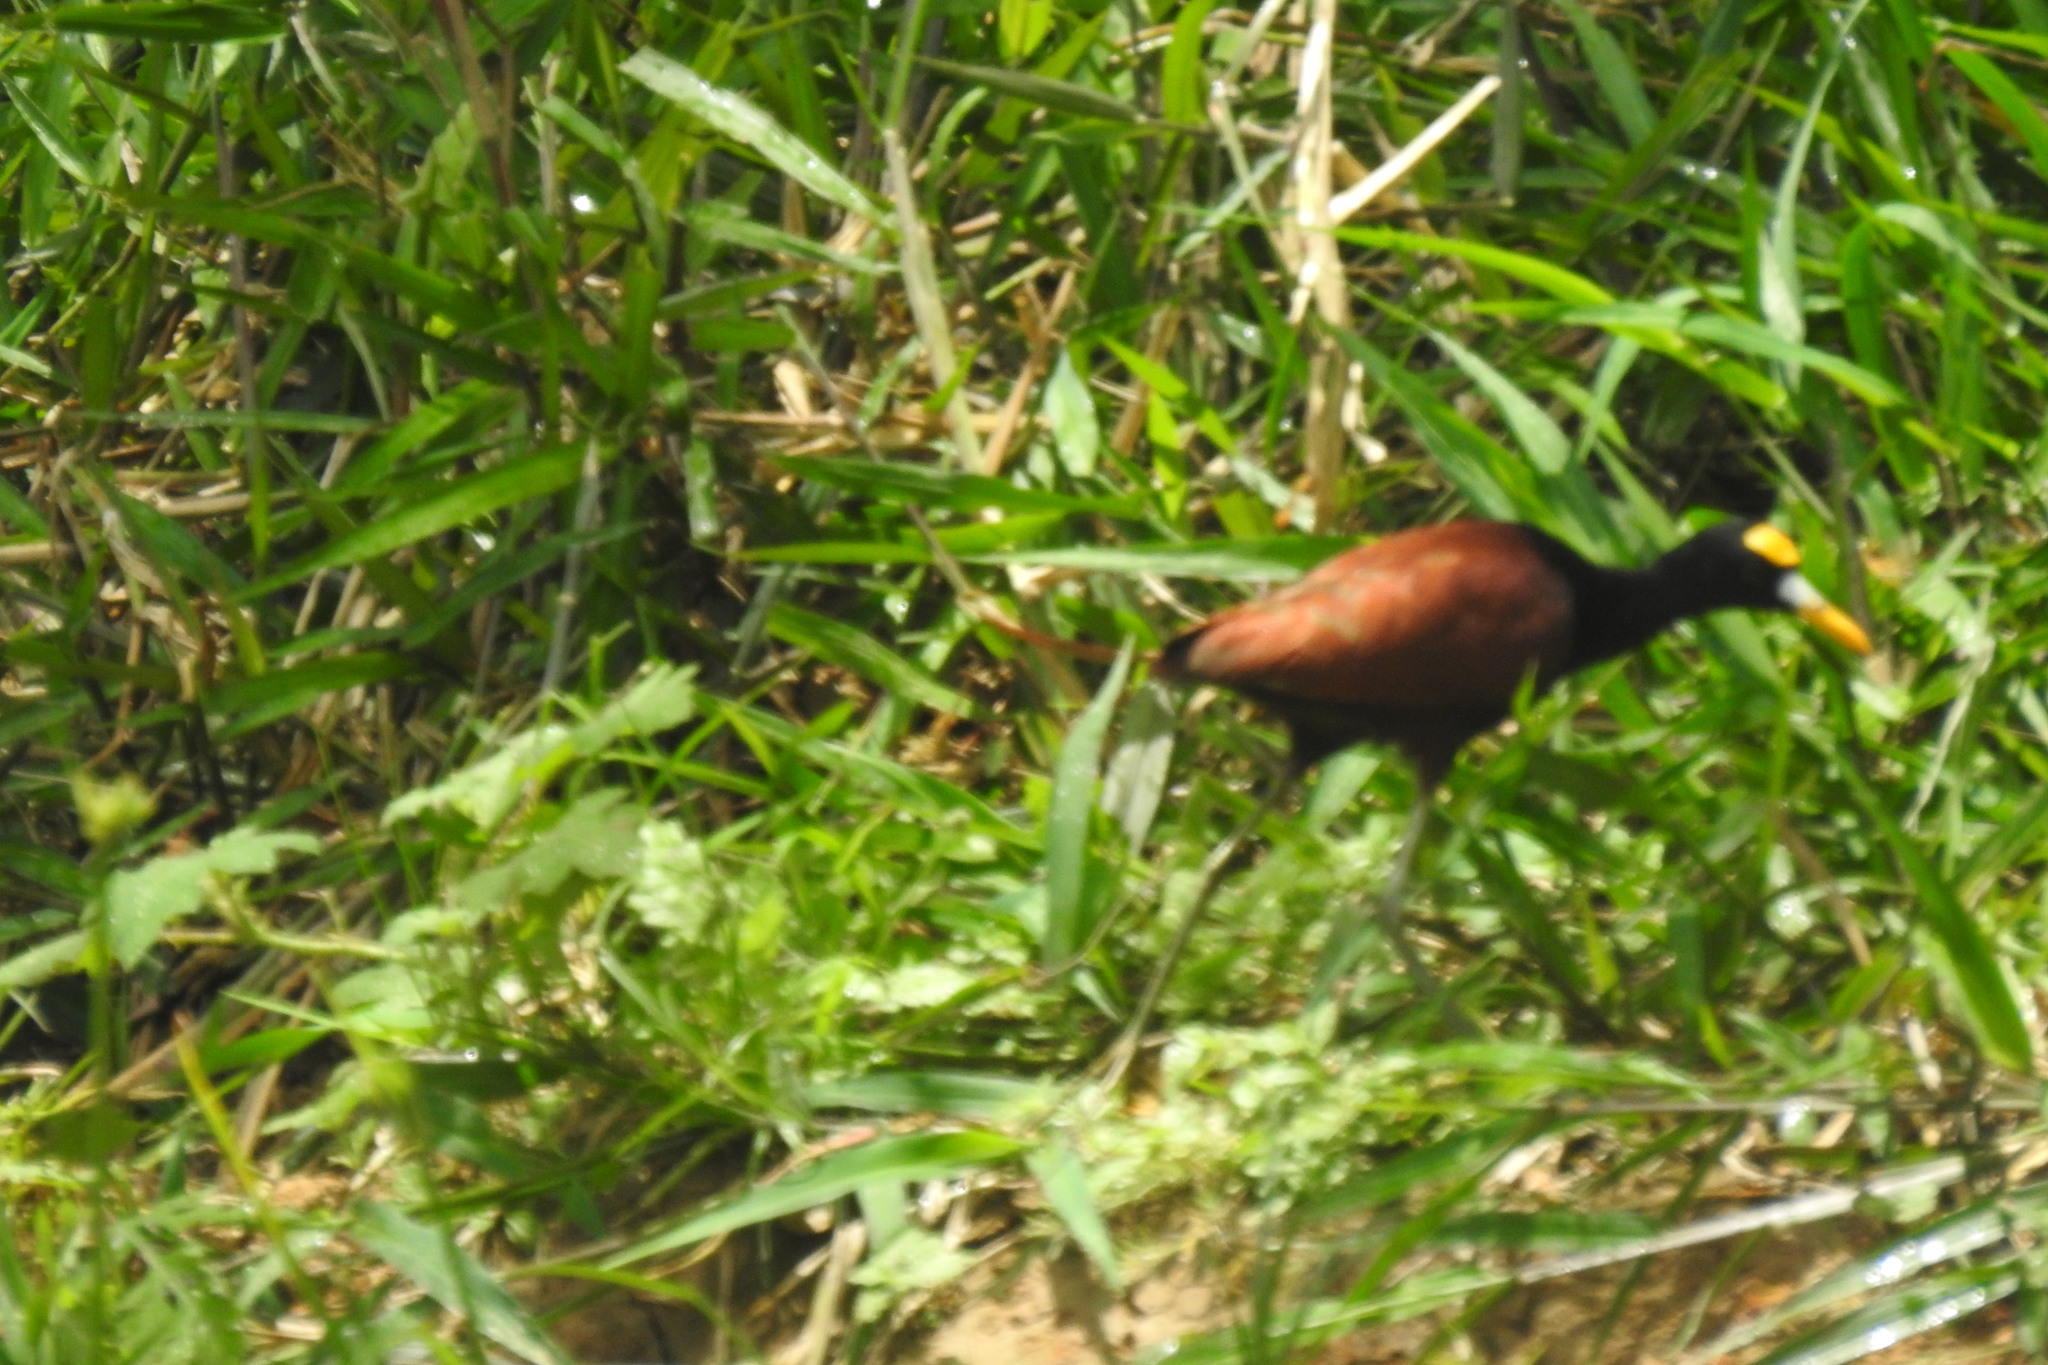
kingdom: Animalia
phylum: Chordata
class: Aves
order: Charadriiformes
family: Jacanidae
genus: Jacana
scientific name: Jacana spinosa
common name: Northern jacana
